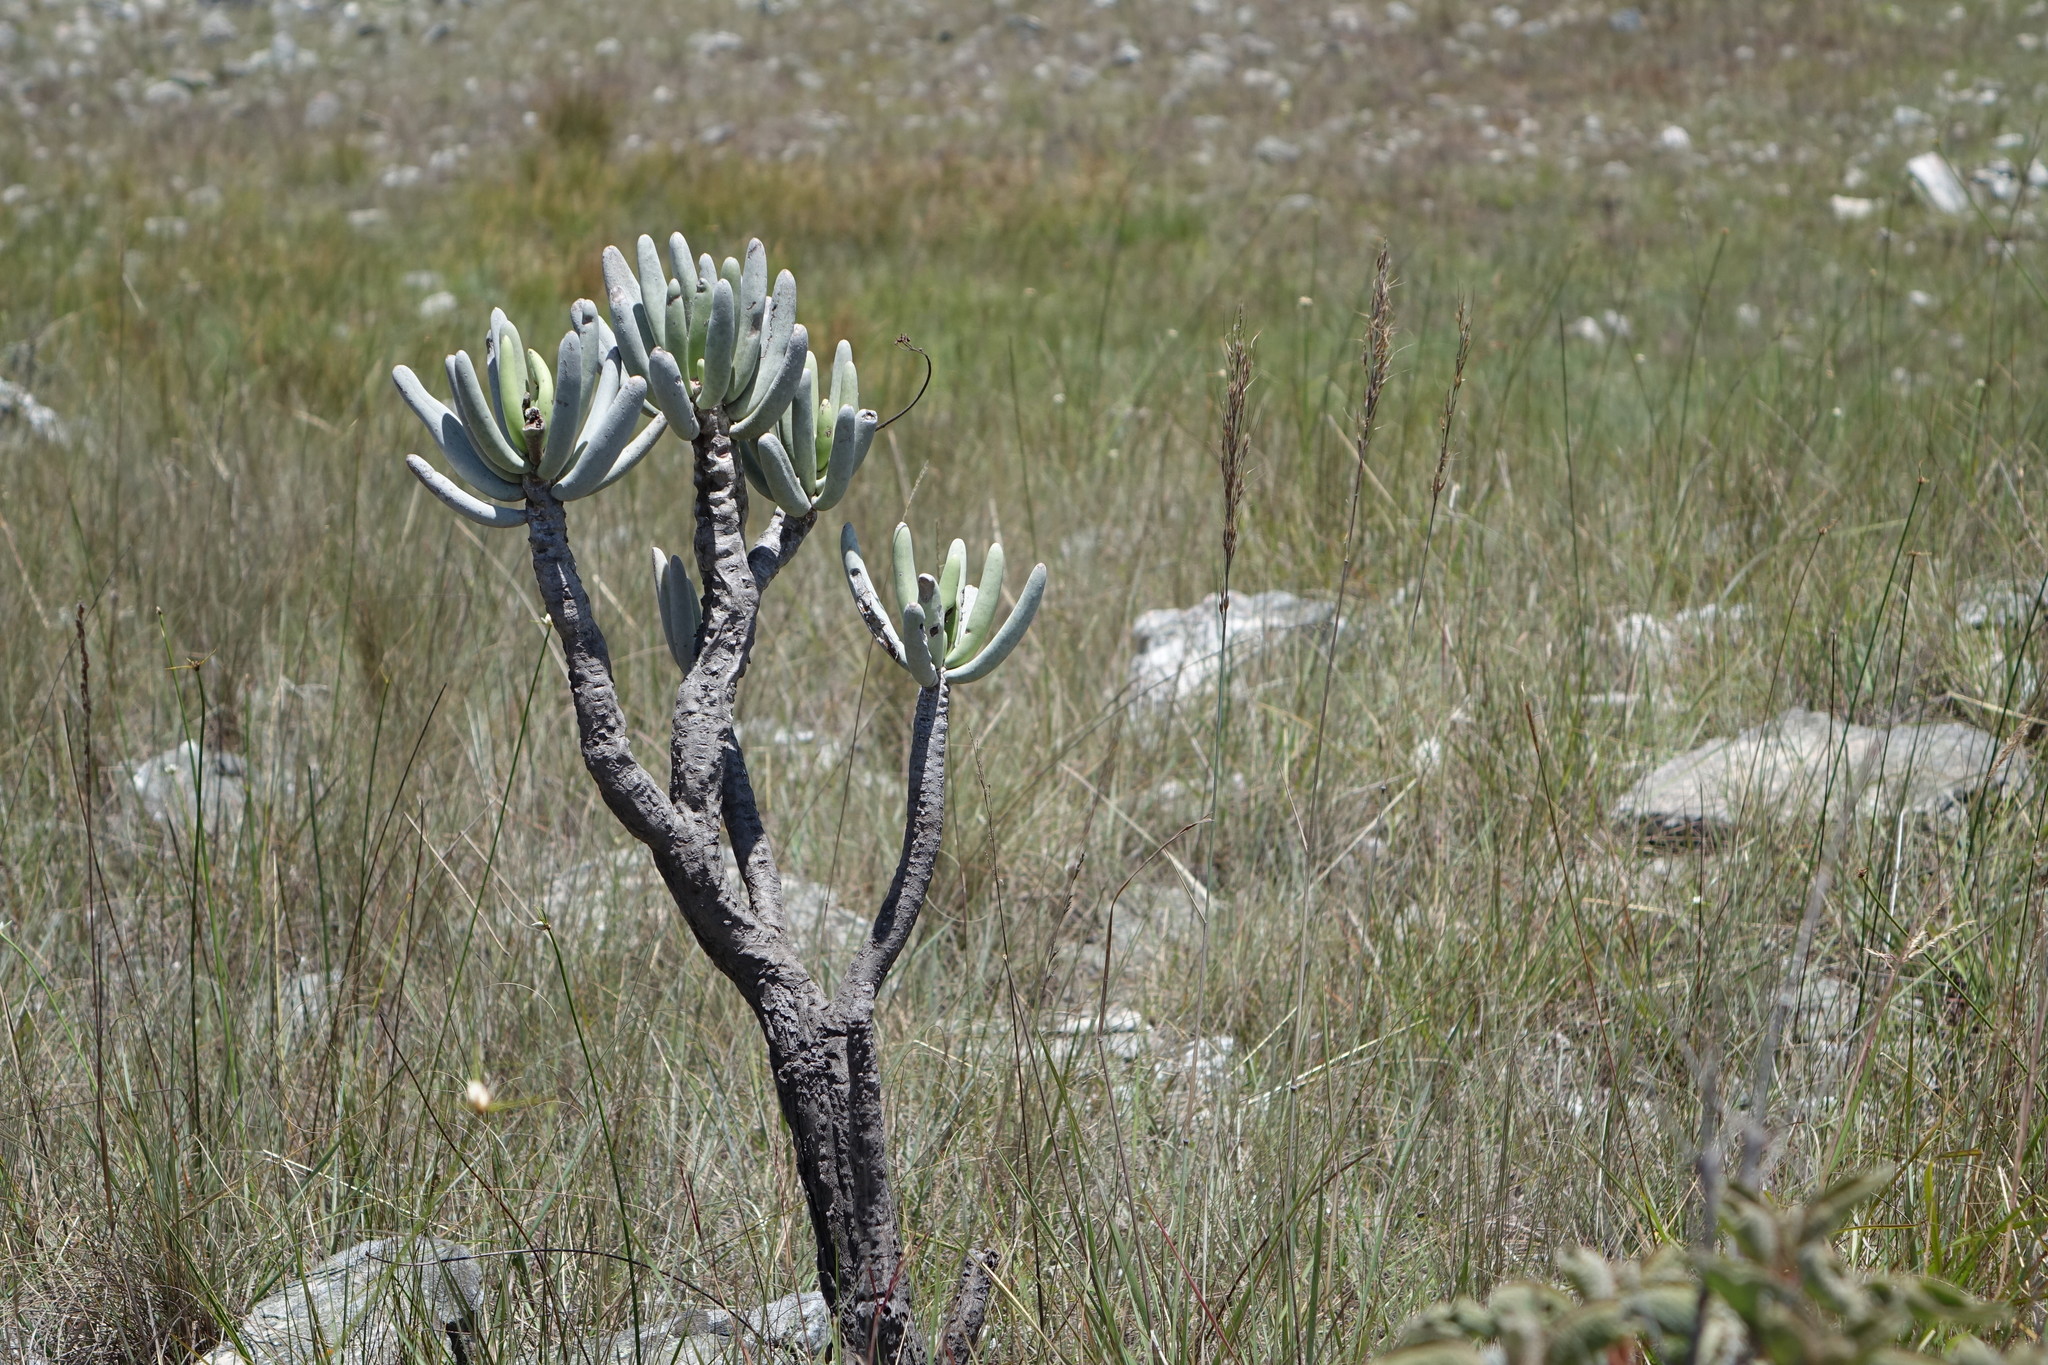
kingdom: Plantae
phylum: Tracheophyta
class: Magnoliopsida
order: Saxifragales
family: Crassulaceae
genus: Kalanchoe
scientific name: Kalanchoe integrifolia
